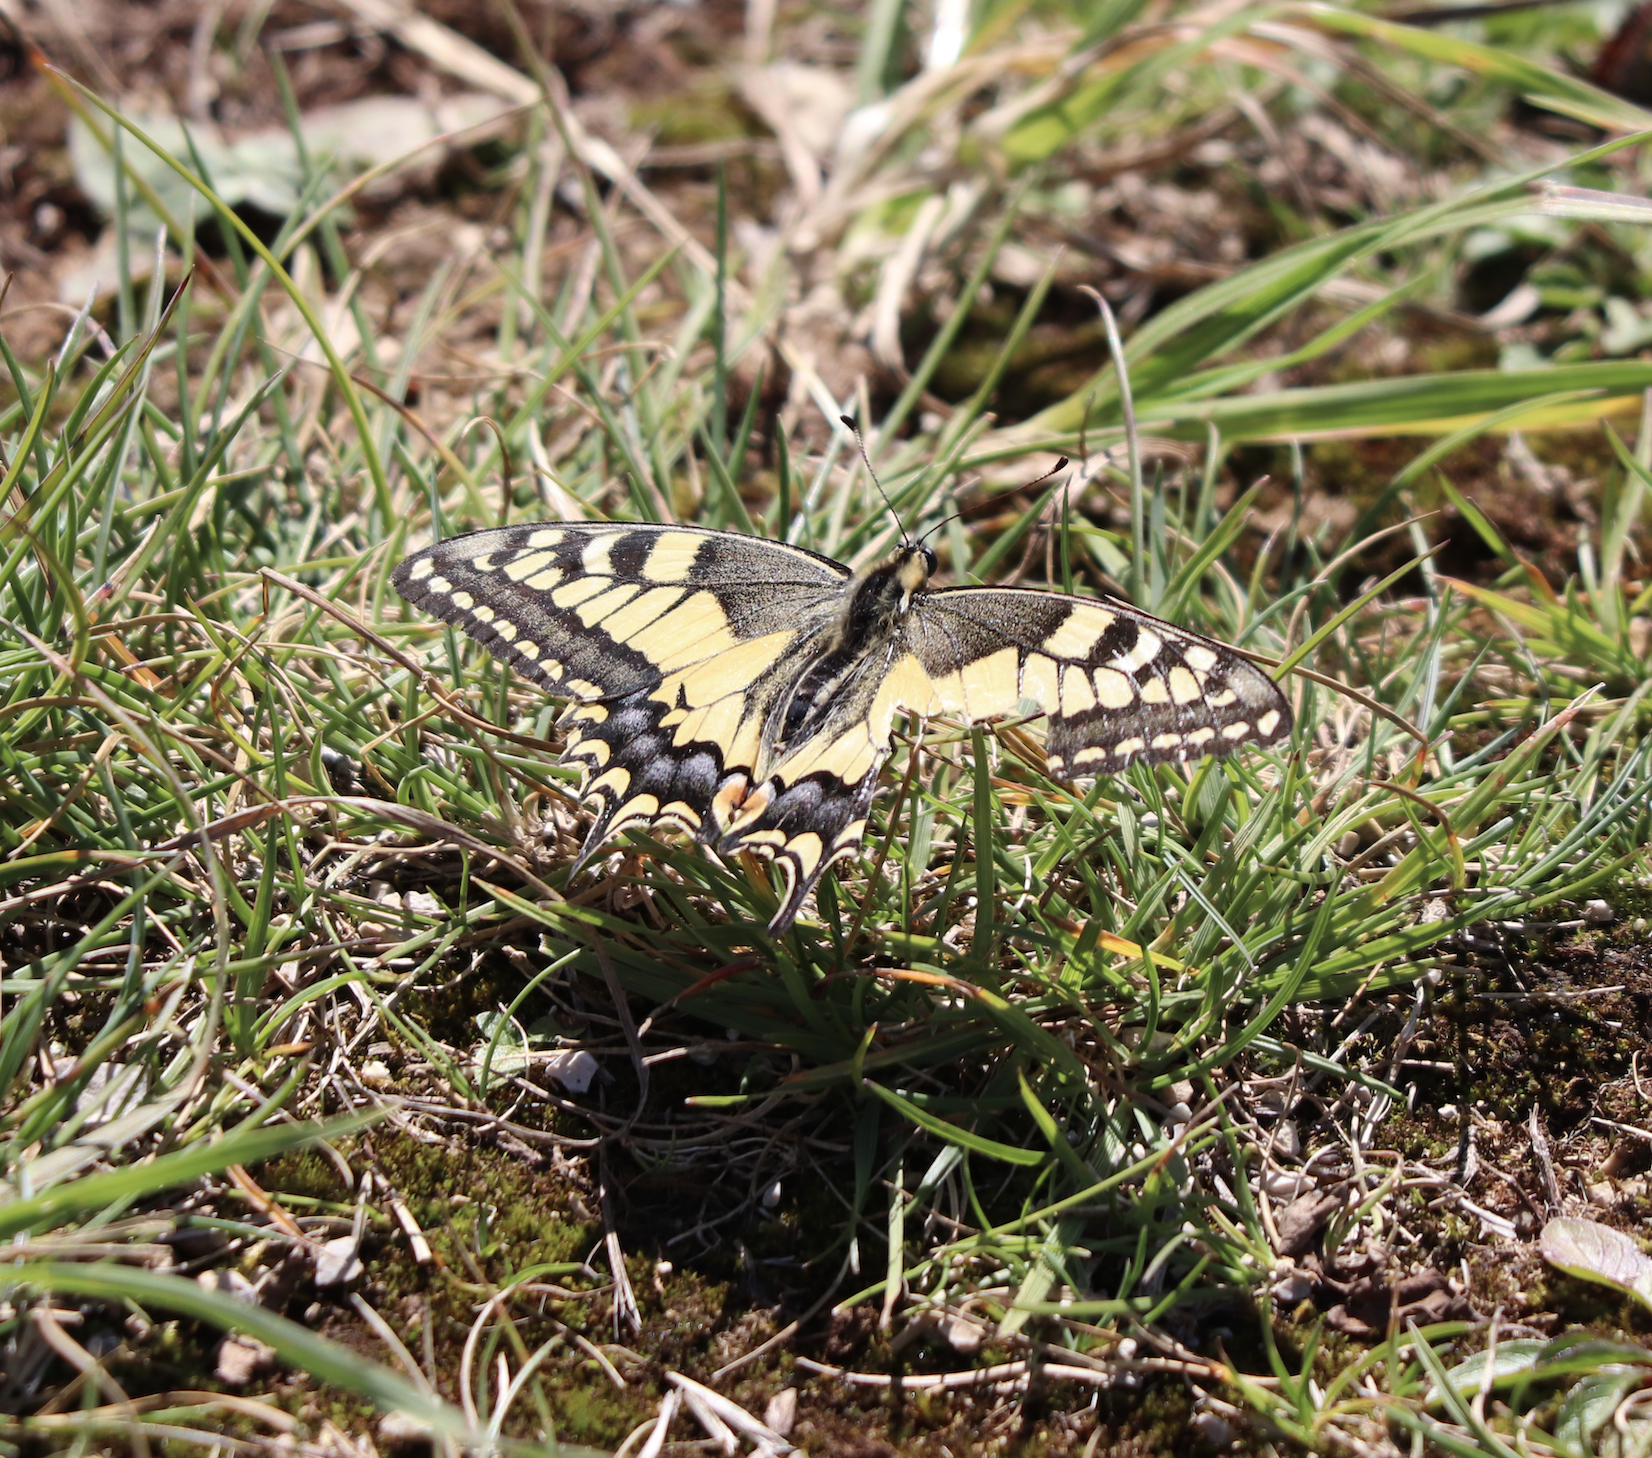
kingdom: Animalia
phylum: Arthropoda
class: Insecta
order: Lepidoptera
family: Papilionidae
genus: Papilio
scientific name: Papilio machaon
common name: Swallowtail
